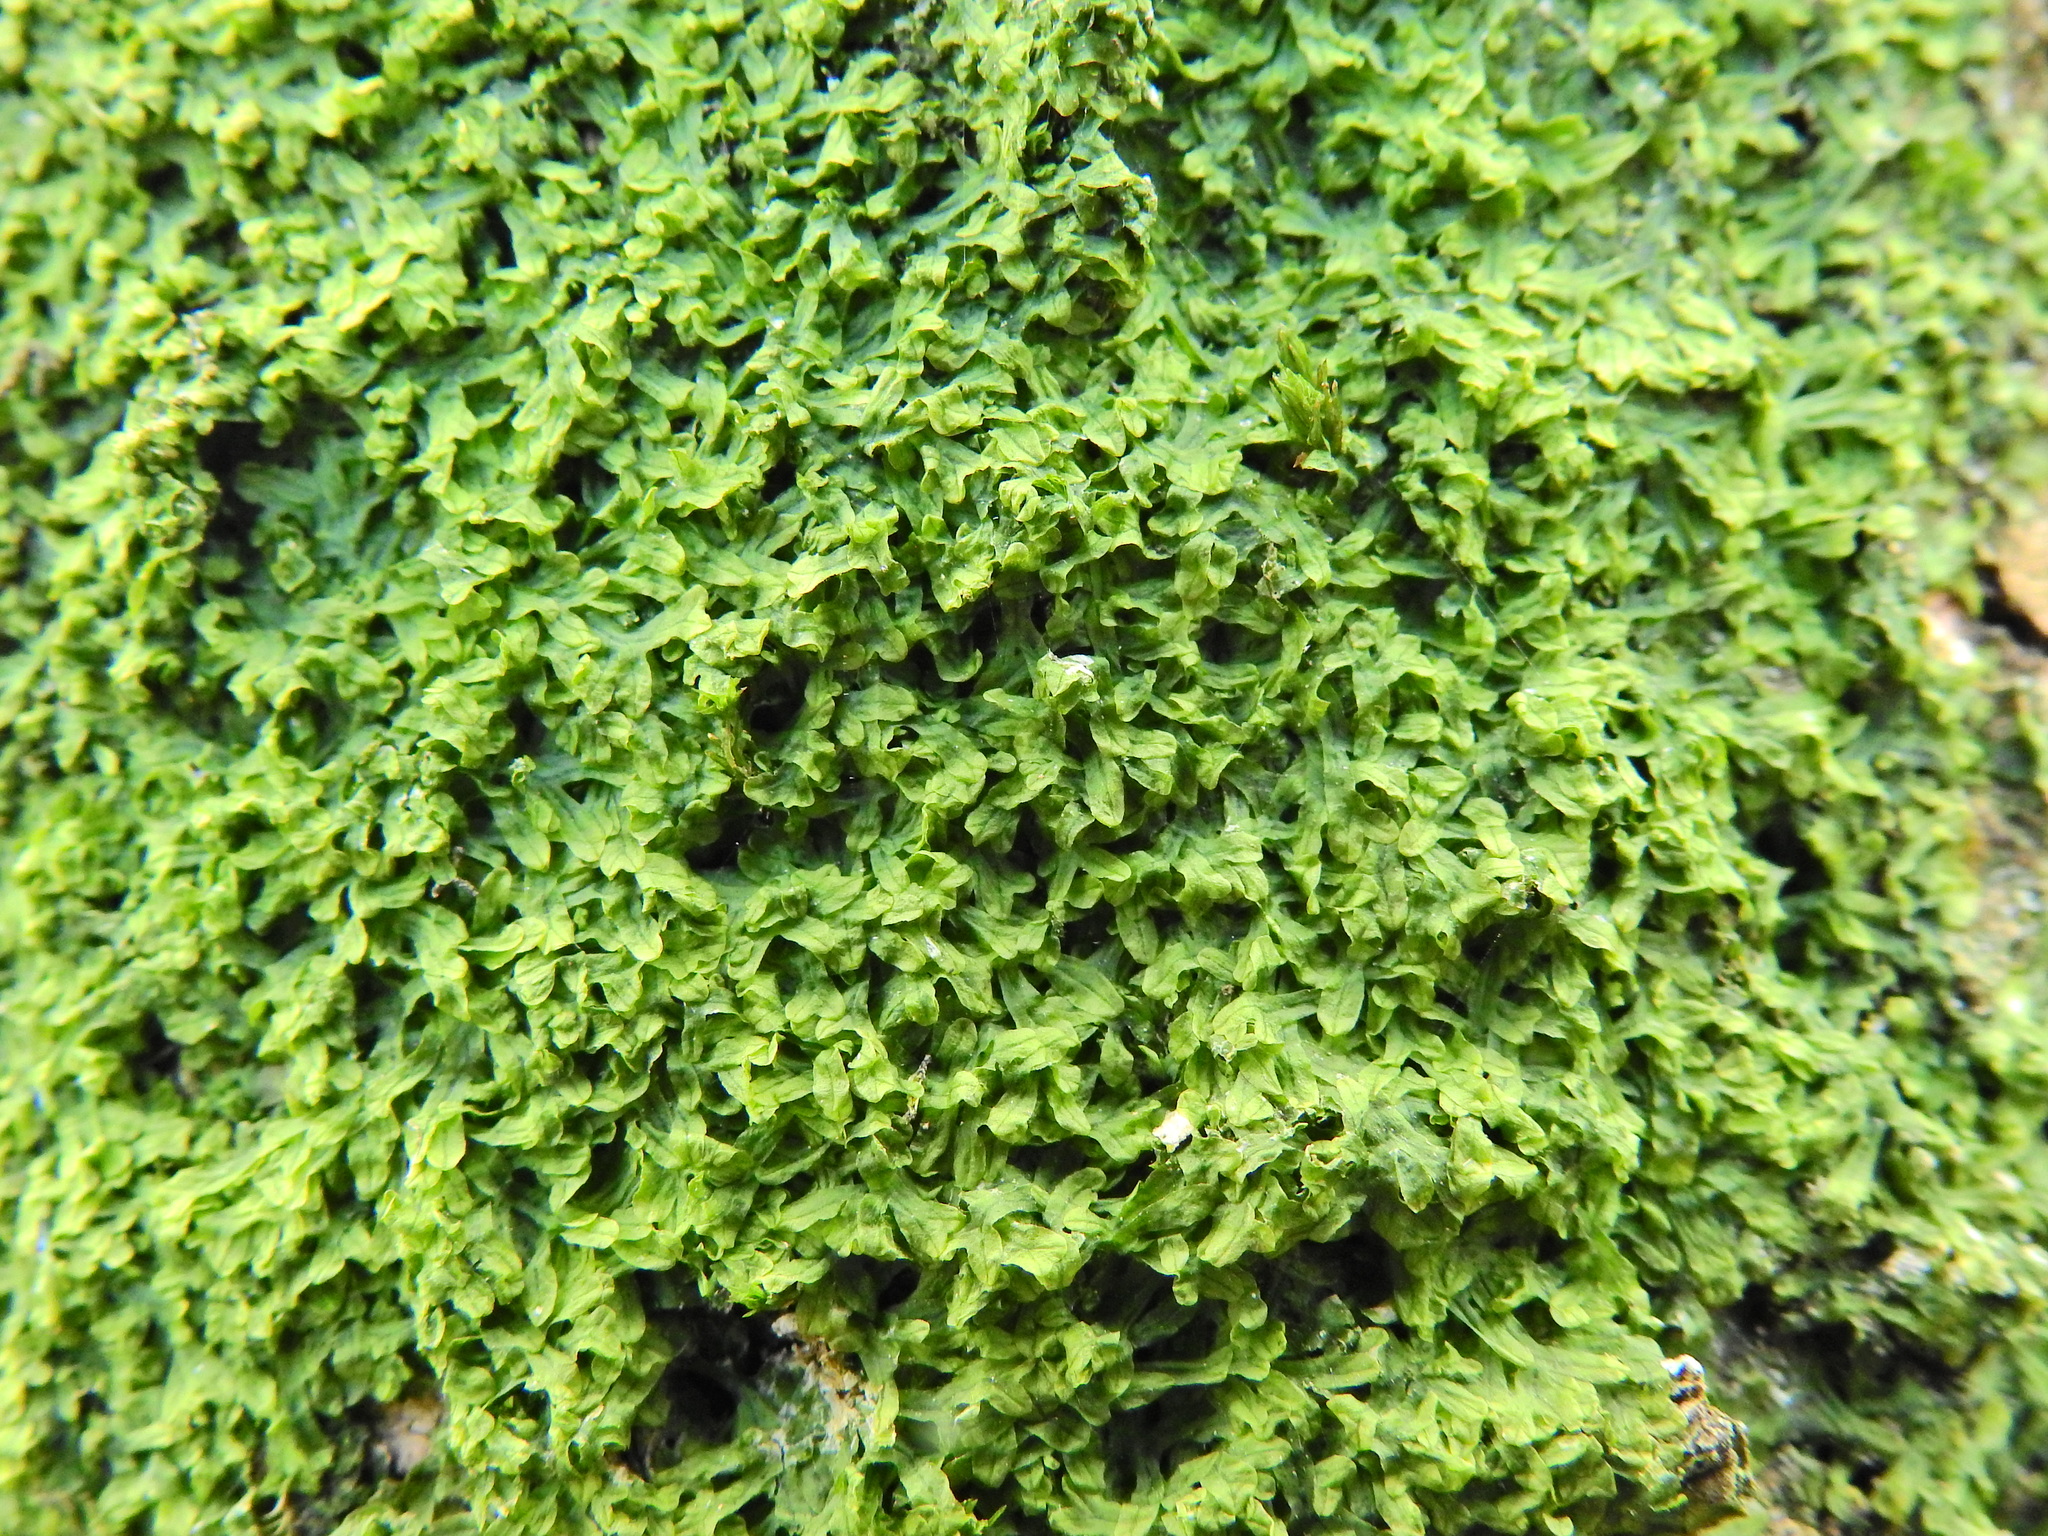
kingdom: Plantae
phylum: Marchantiophyta
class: Jungermanniopsida
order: Metzgeriales
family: Metzgeriaceae
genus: Metzgeria
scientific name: Metzgeria furcata
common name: Forked veilwort
